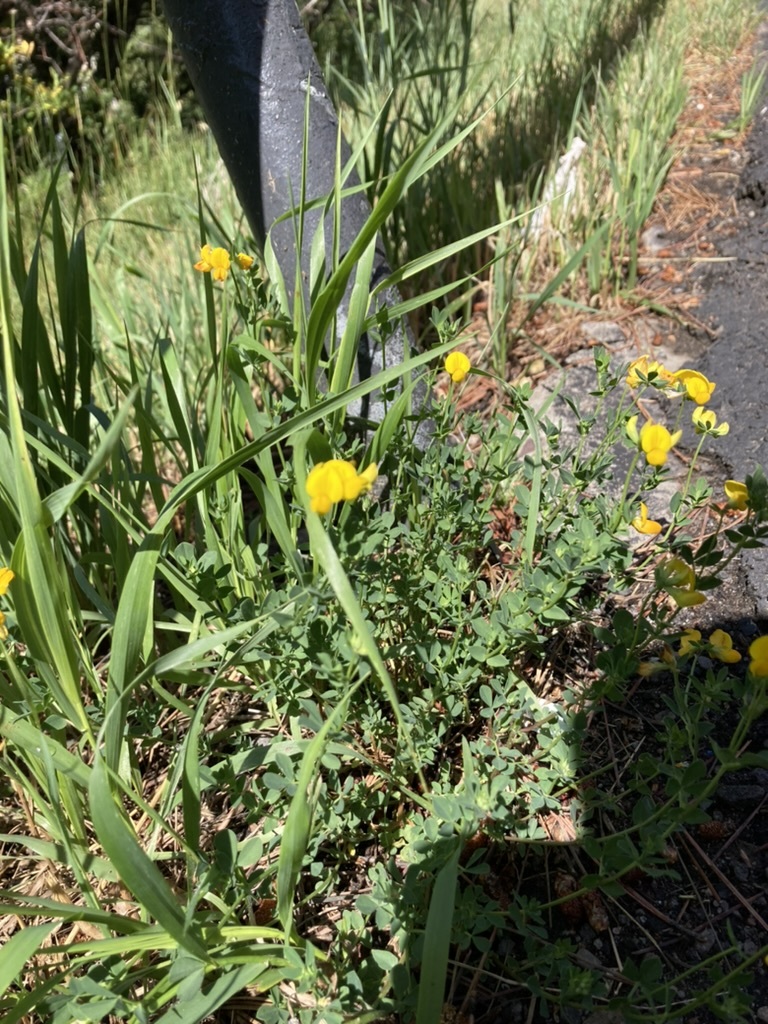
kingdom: Plantae
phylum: Tracheophyta
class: Magnoliopsida
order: Fabales
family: Fabaceae
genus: Lotus
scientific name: Lotus corniculatus
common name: Common bird's-foot-trefoil
